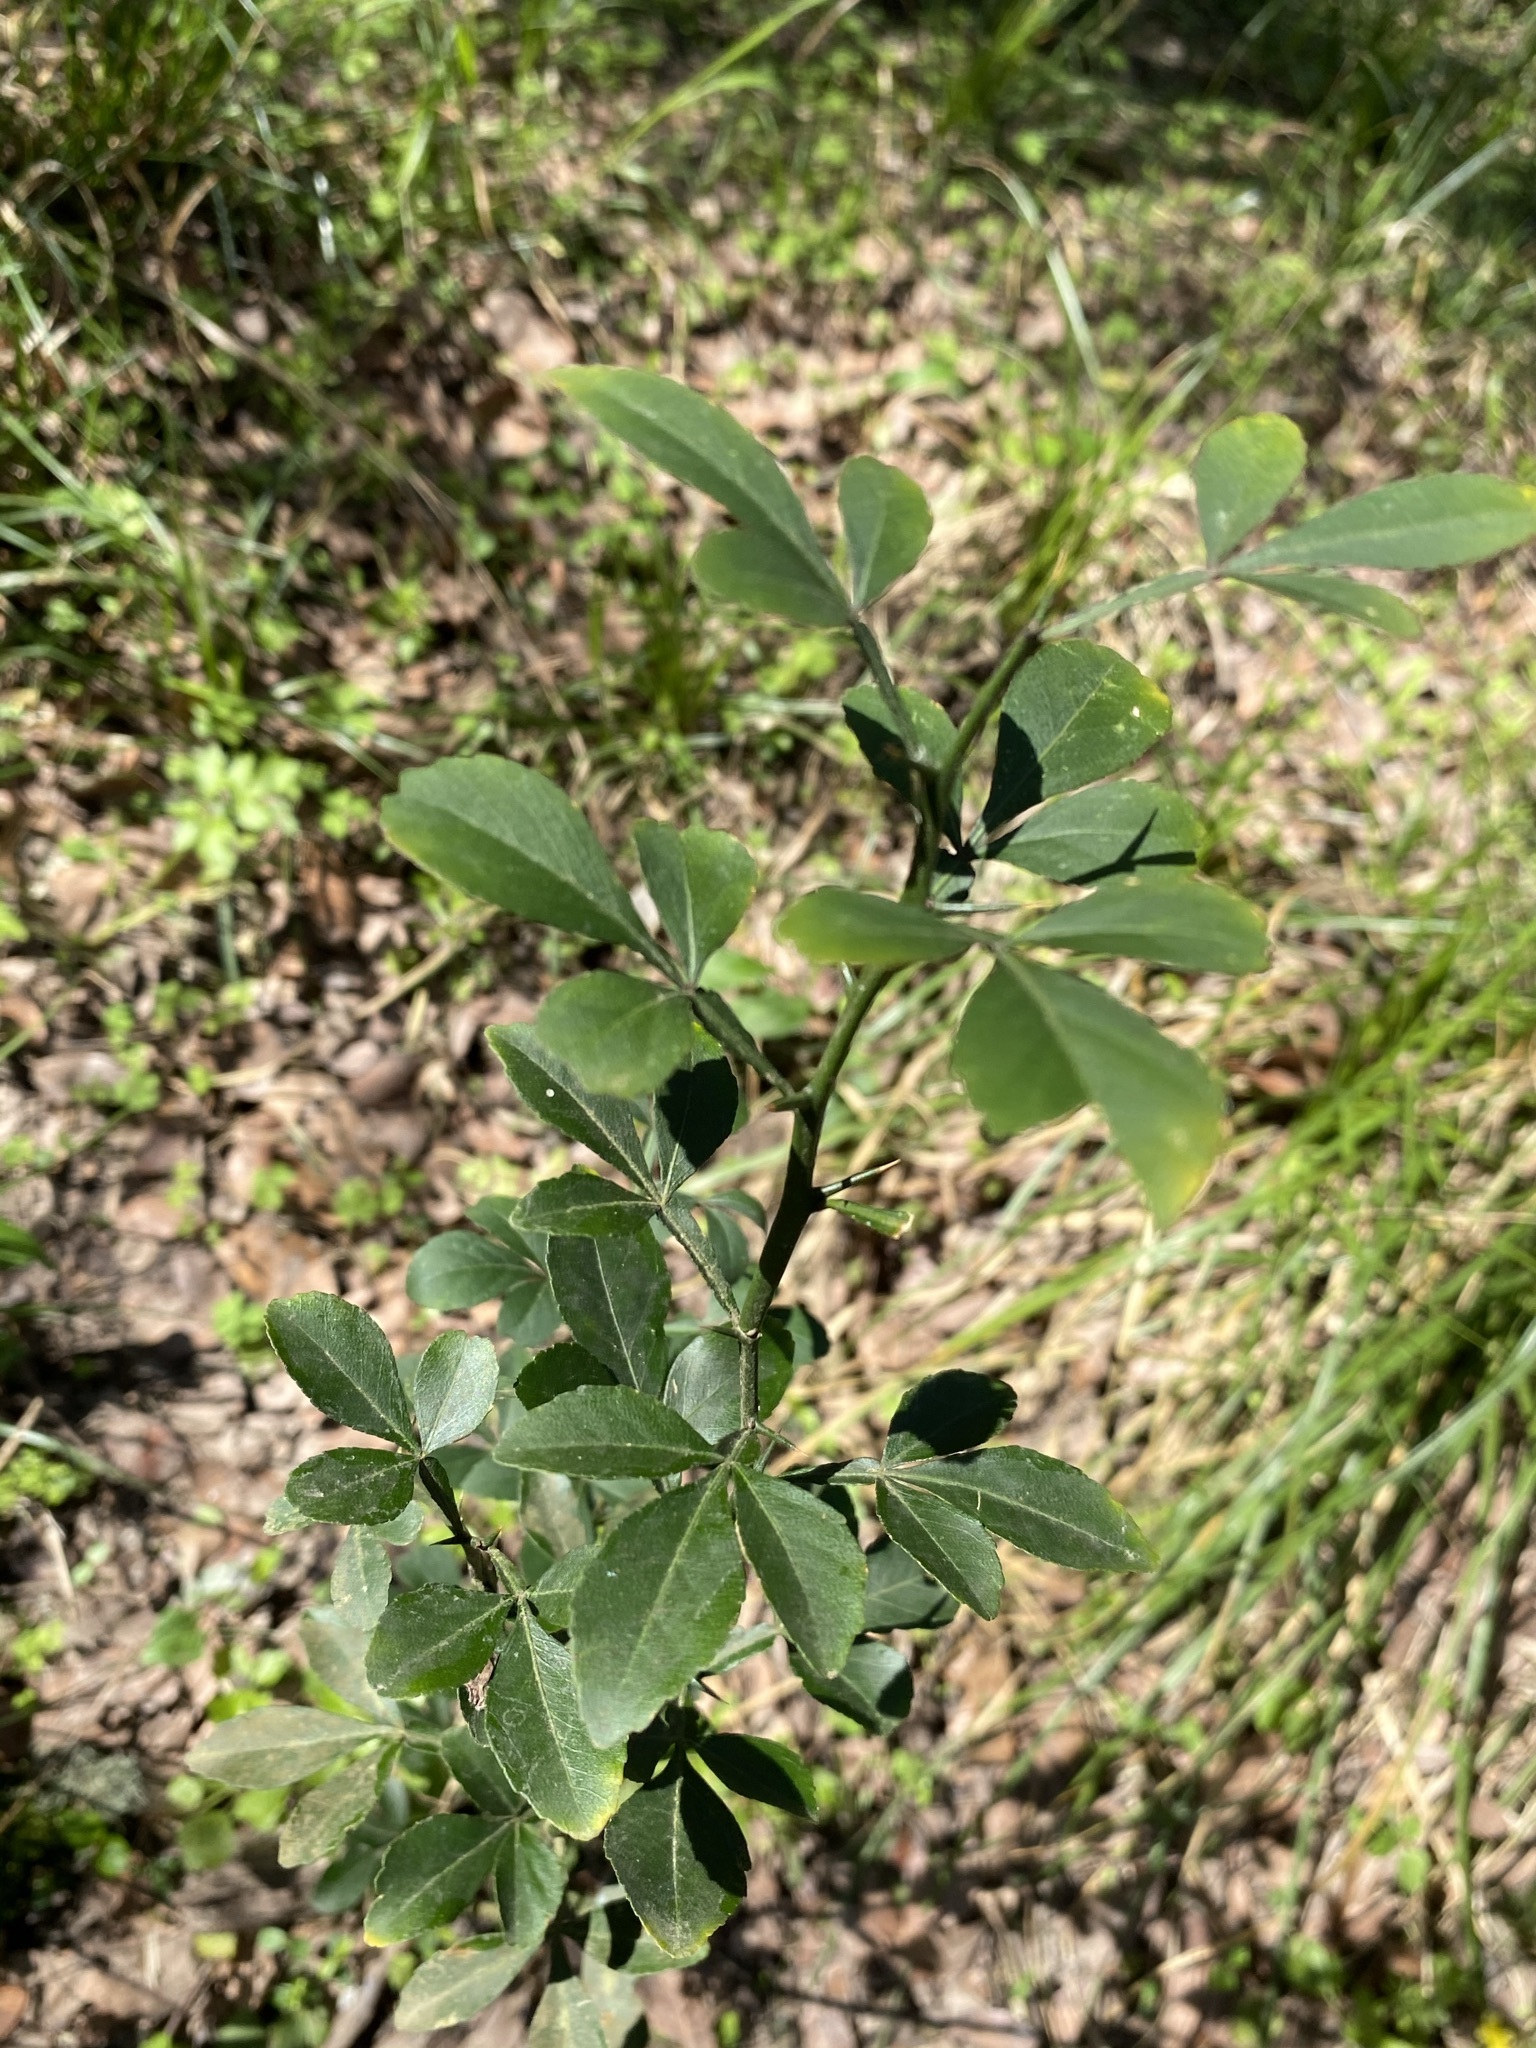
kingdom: Plantae
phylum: Tracheophyta
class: Magnoliopsida
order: Sapindales
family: Rutaceae
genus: Citrus
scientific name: Citrus trifoliata
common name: Japanese bitter-orange
